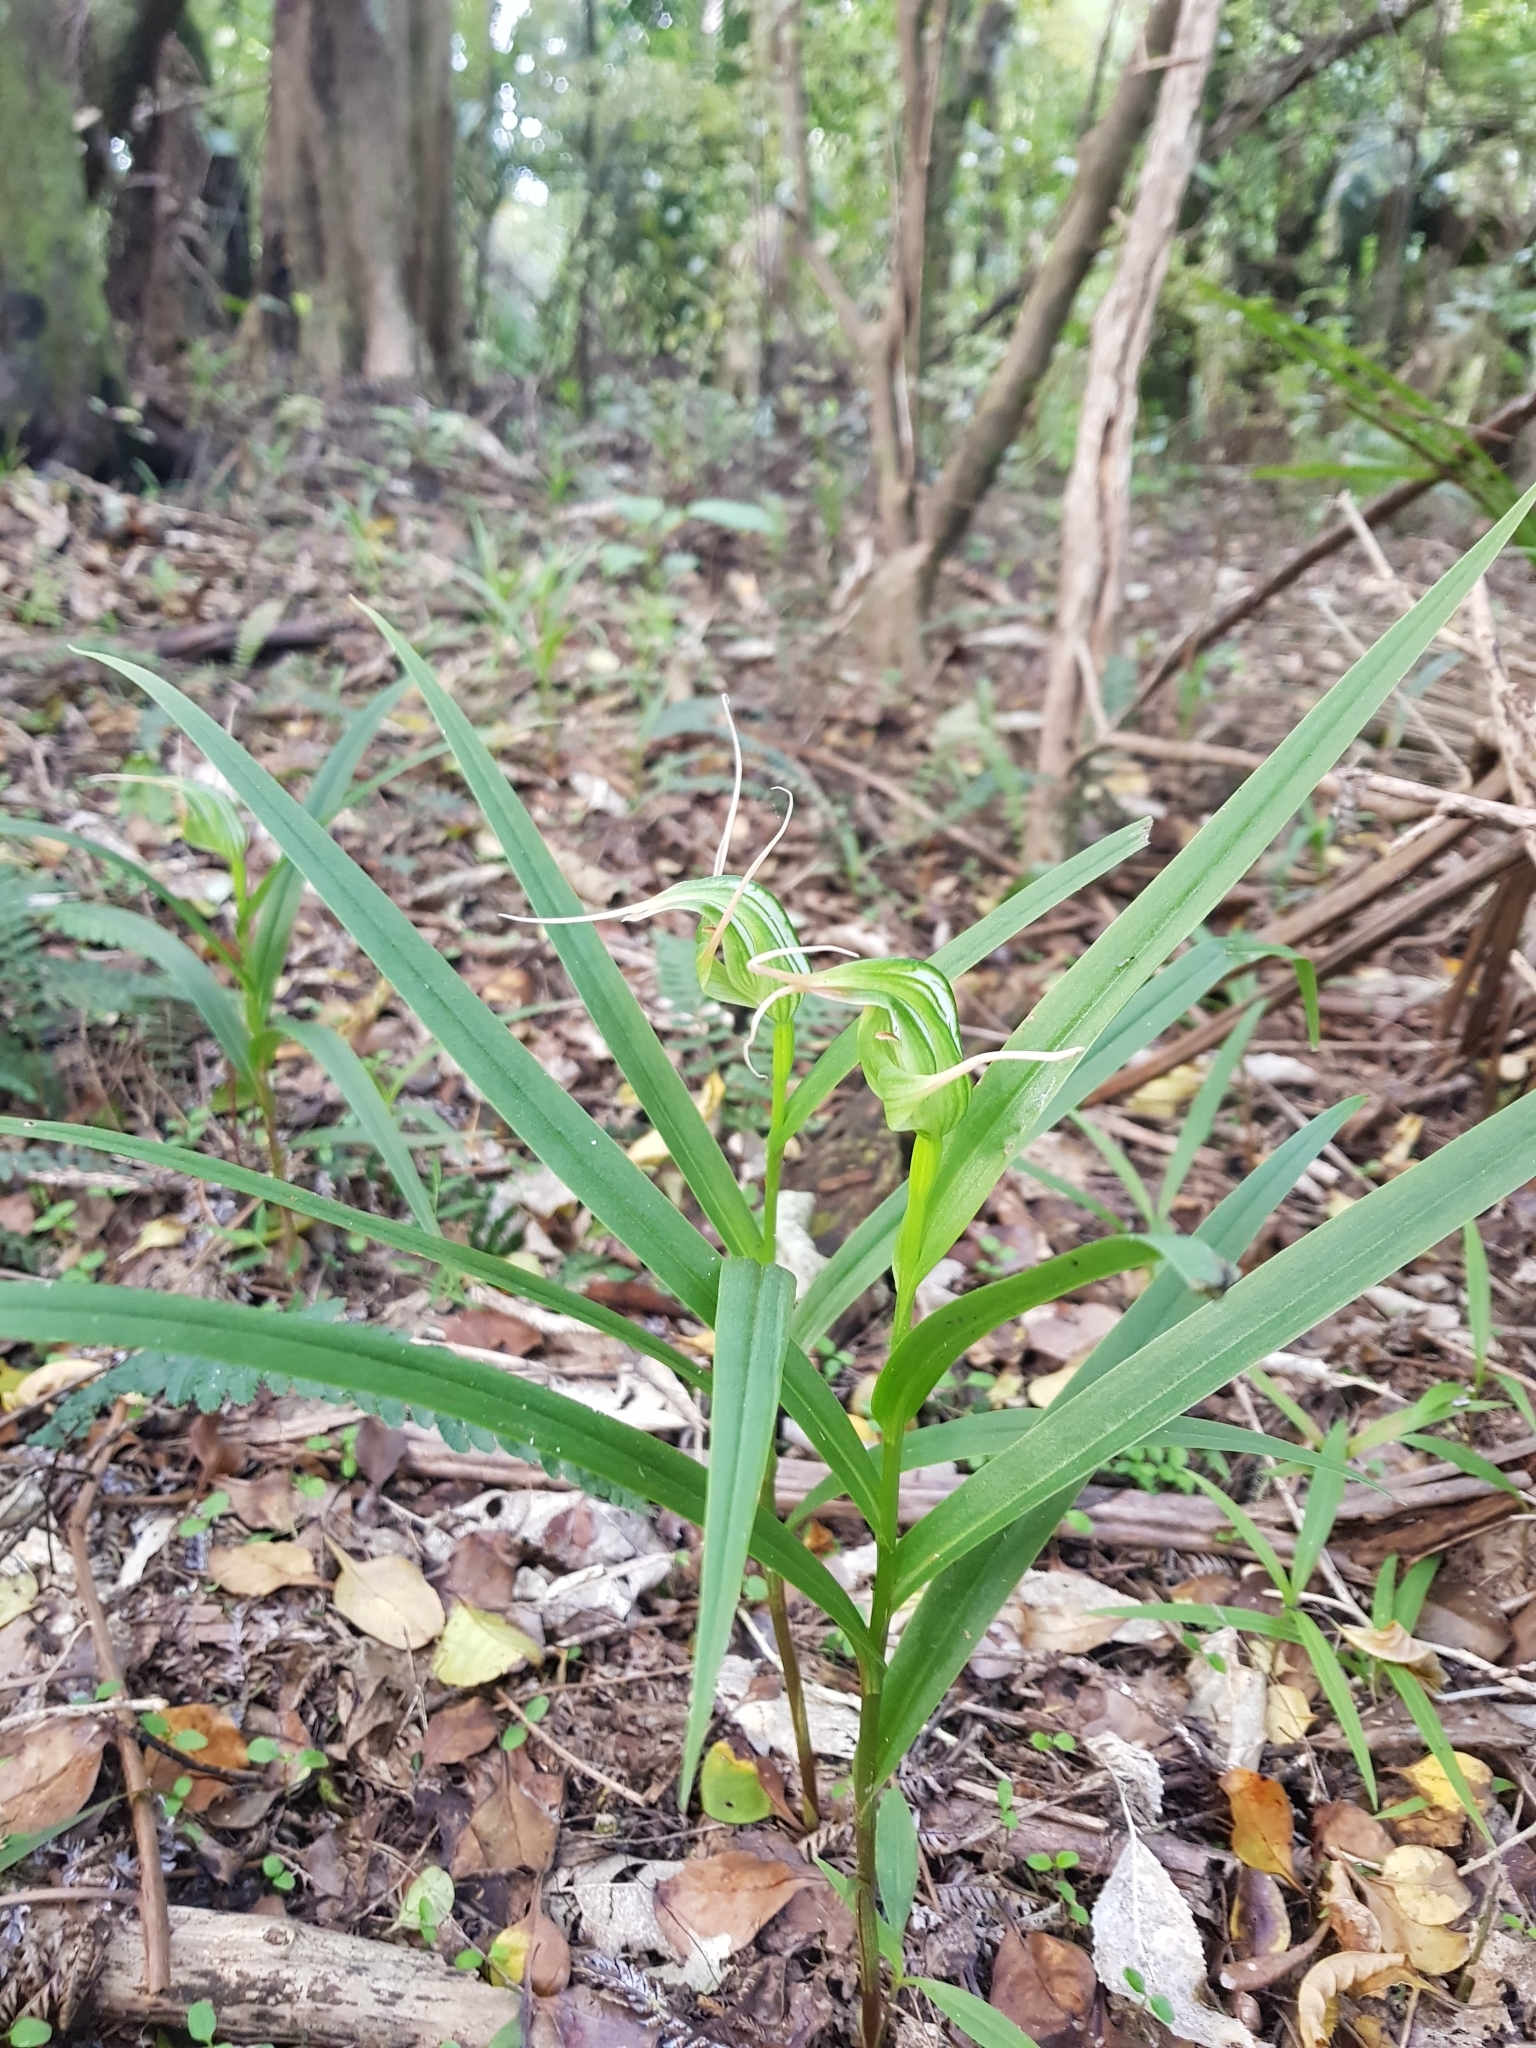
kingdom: Plantae
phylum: Tracheophyta
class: Liliopsida
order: Asparagales
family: Orchidaceae
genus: Pterostylis
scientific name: Pterostylis banksii
